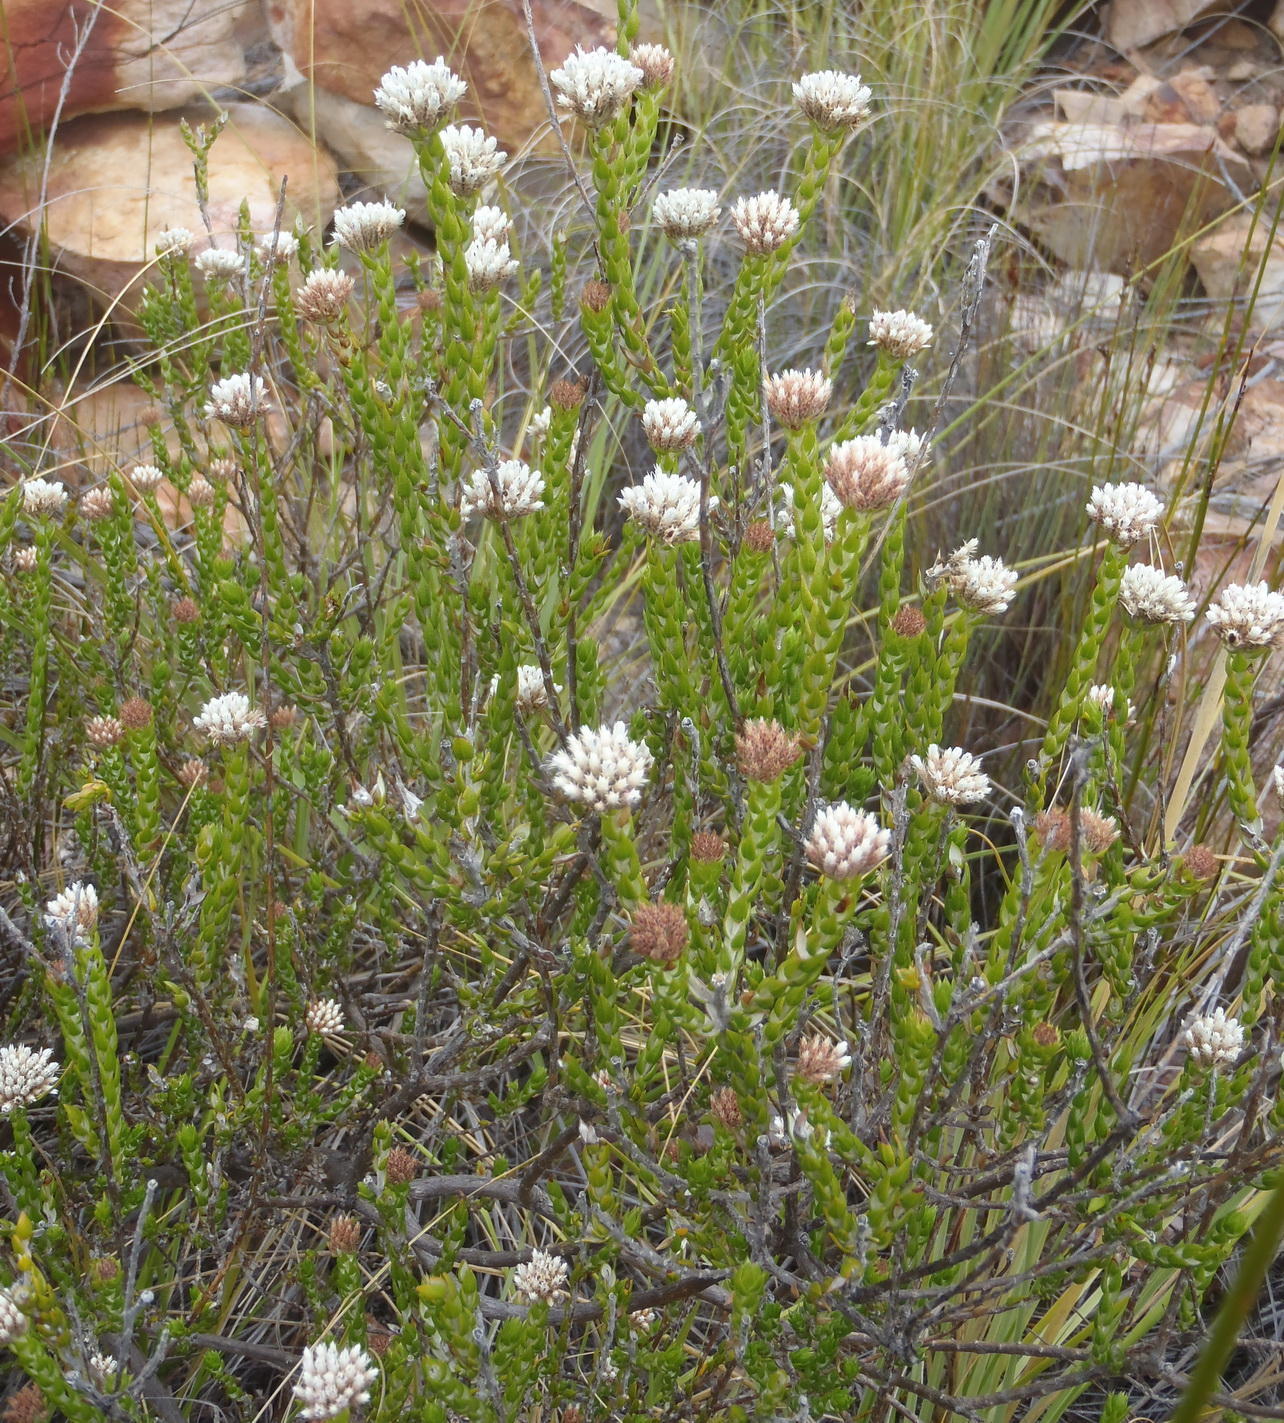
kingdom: Plantae
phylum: Tracheophyta
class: Magnoliopsida
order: Asterales
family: Asteraceae
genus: Metalasia
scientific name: Metalasia pulcherrima
